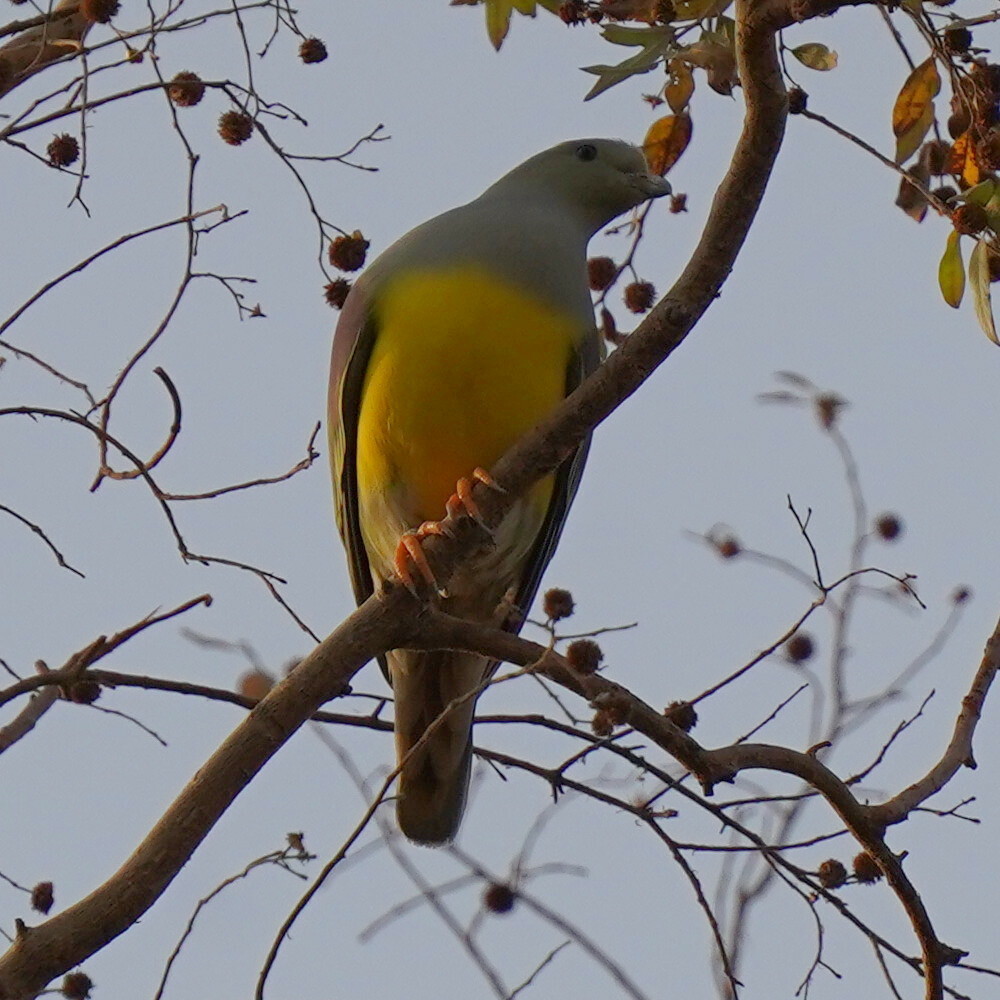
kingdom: Animalia
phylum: Chordata
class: Aves
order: Columbiformes
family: Columbidae
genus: Treron
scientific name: Treron waalia
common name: Bruce's green pigeon
